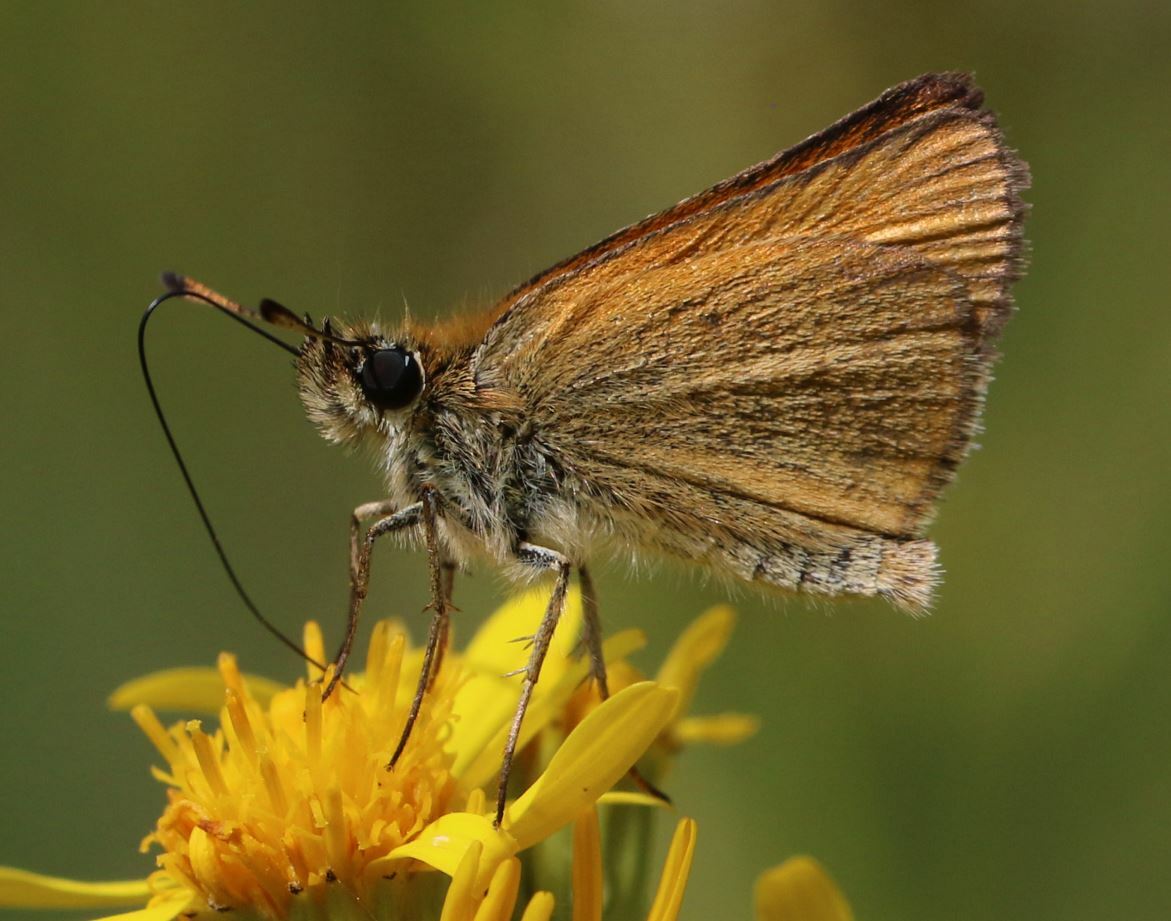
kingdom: Animalia
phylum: Arthropoda
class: Insecta
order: Lepidoptera
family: Hesperiidae
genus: Thymelicus
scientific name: Thymelicus lineola
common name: Essex skipper
